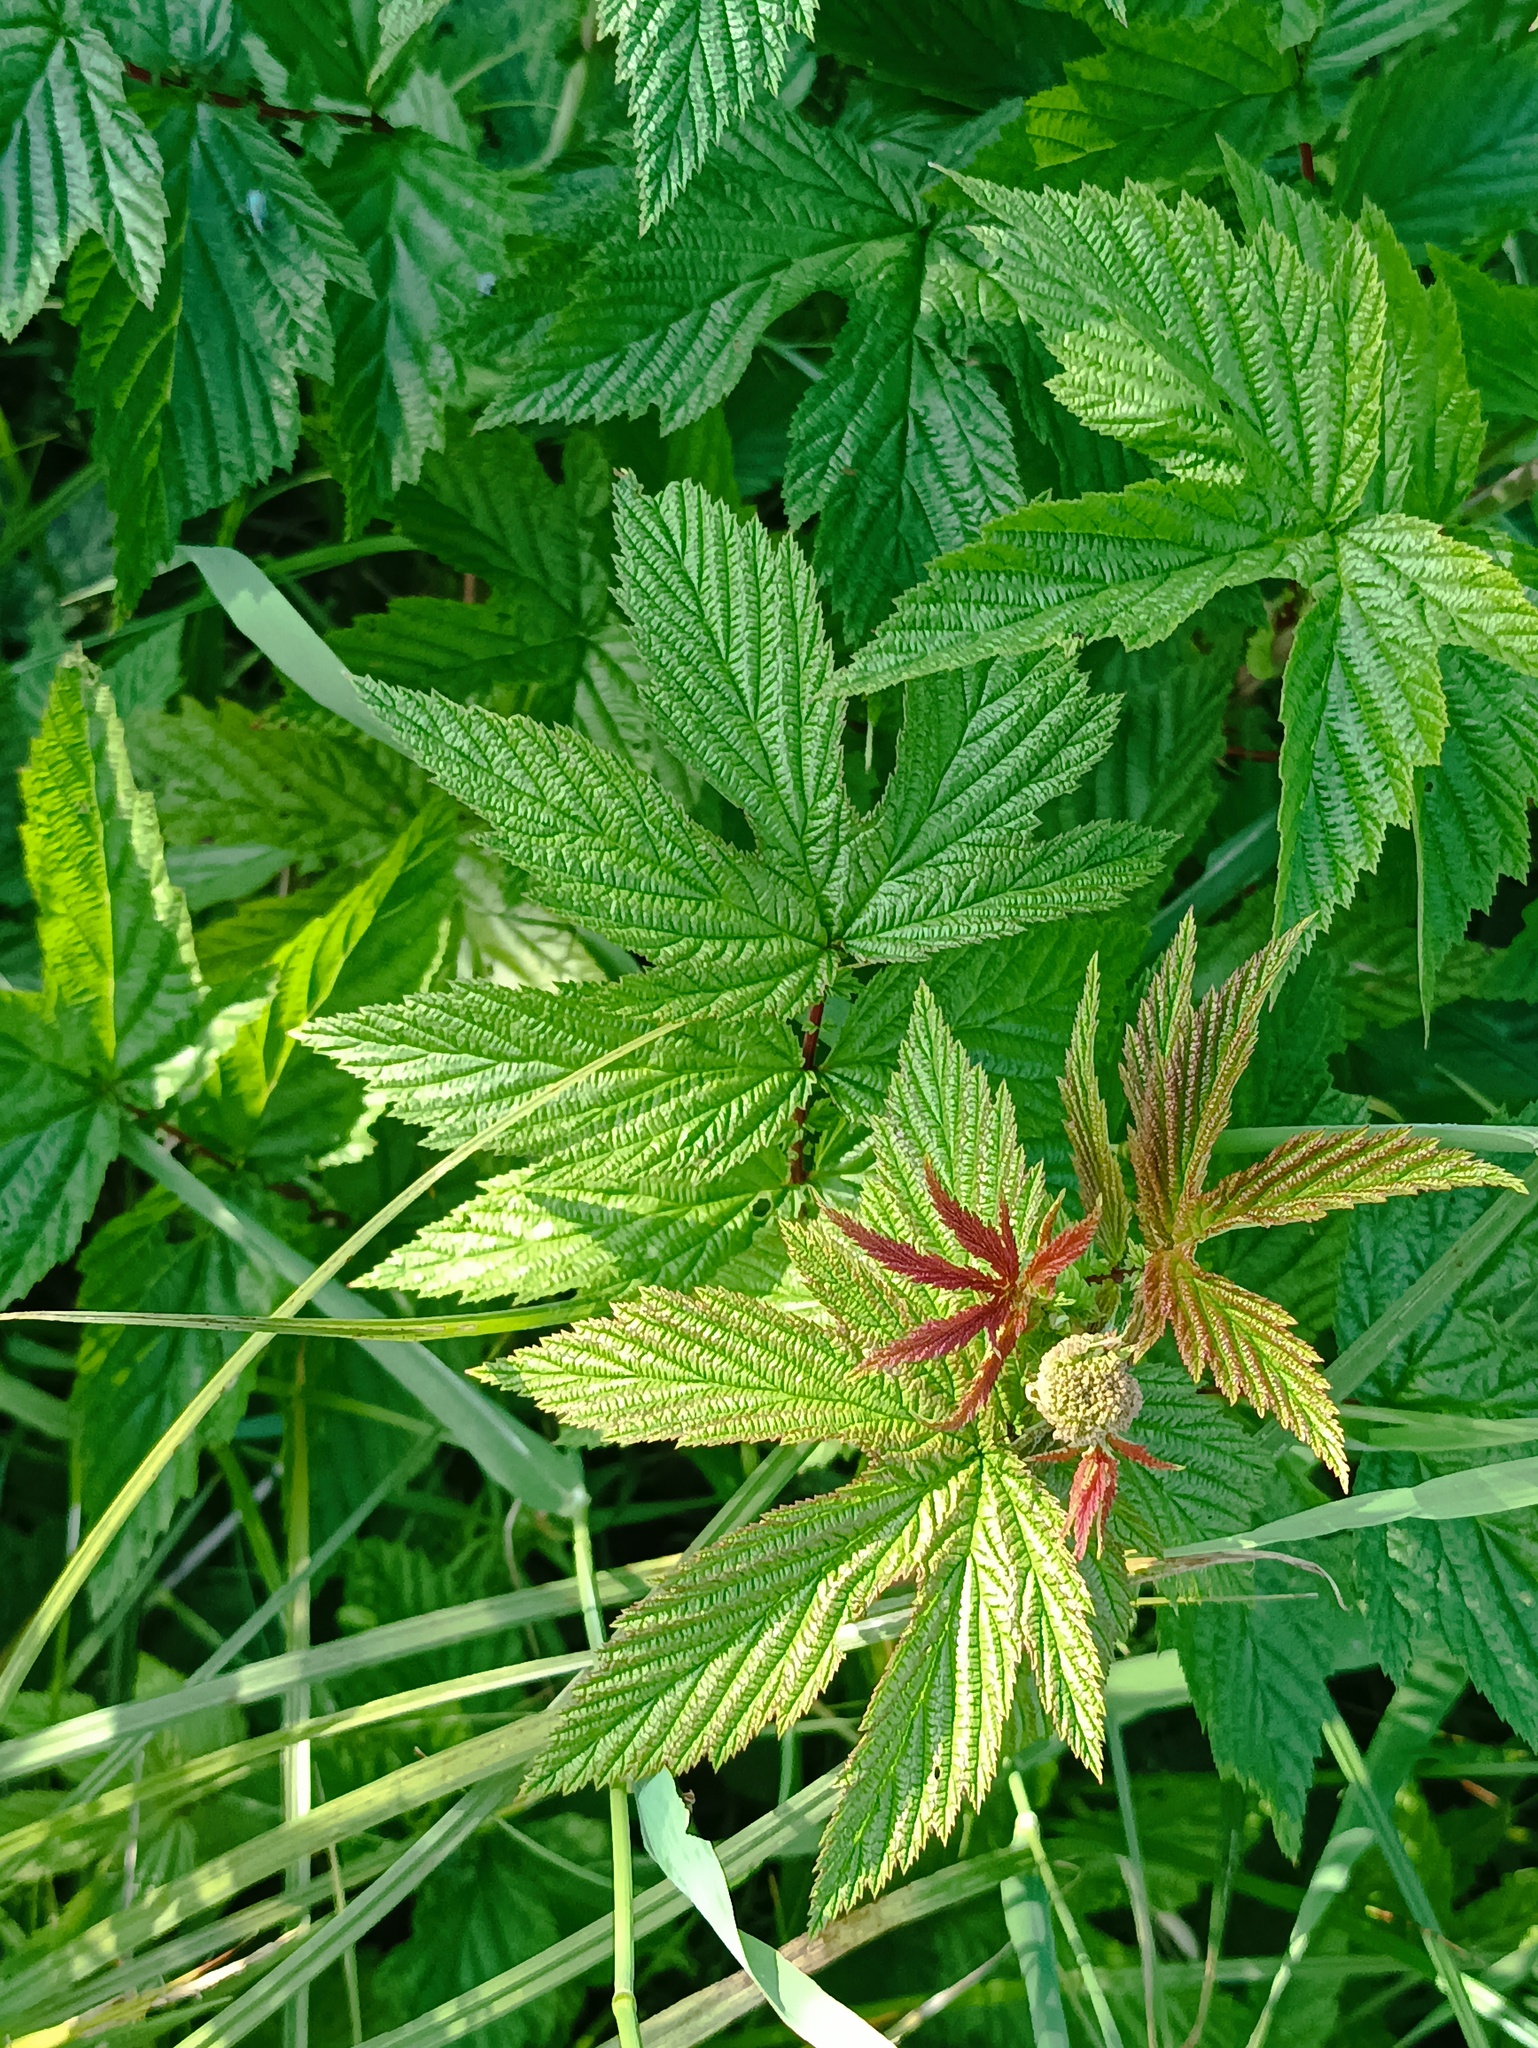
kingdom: Plantae
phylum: Tracheophyta
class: Magnoliopsida
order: Rosales
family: Rosaceae
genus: Filipendula
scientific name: Filipendula ulmaria
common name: Meadowsweet
